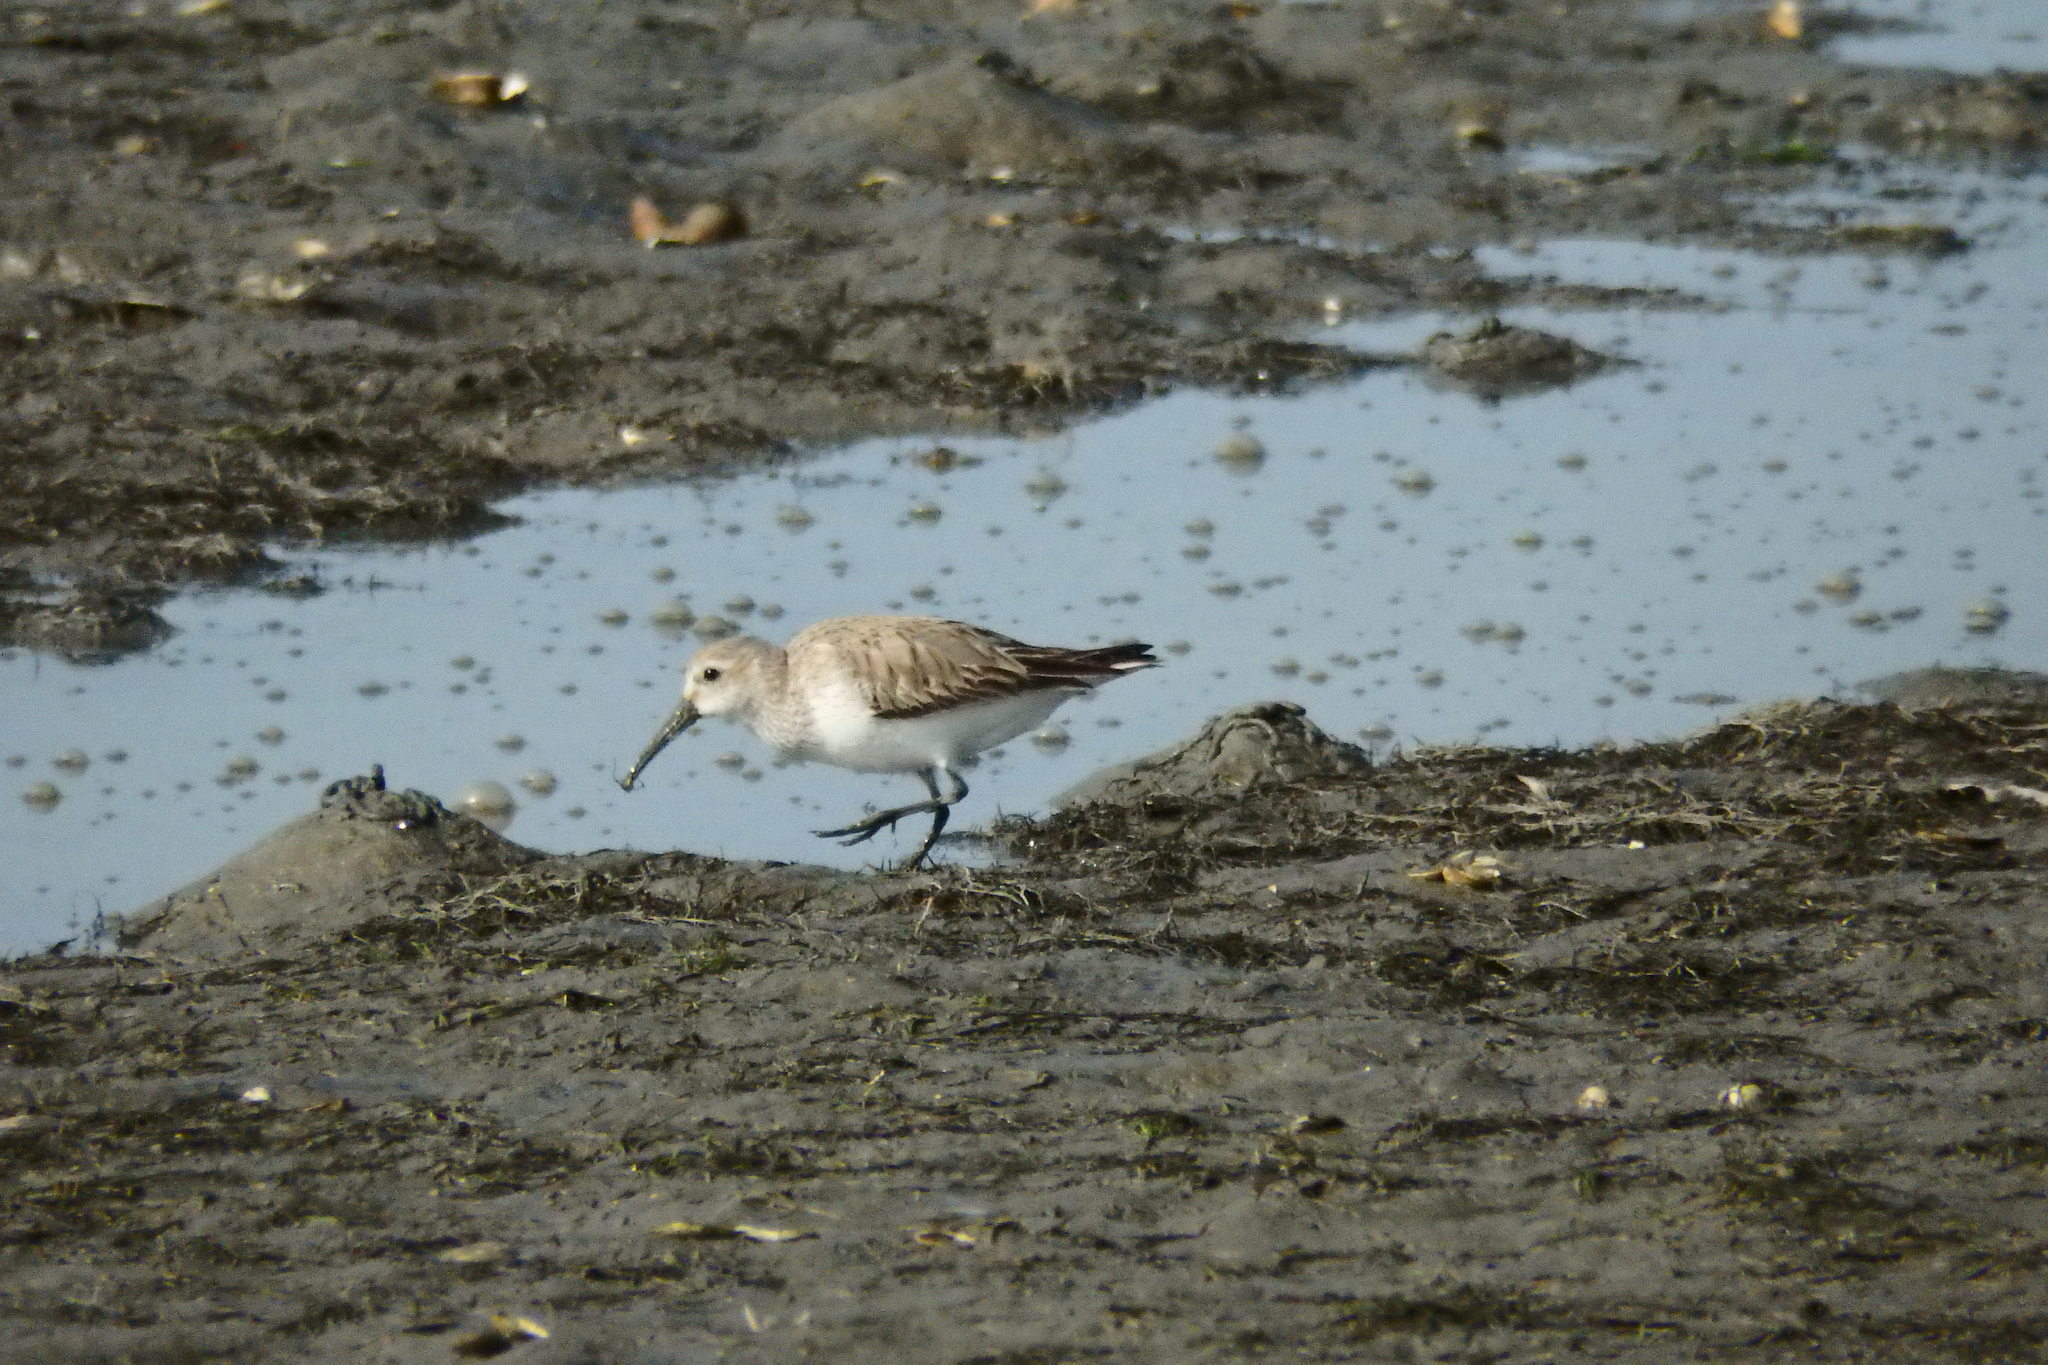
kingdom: Animalia
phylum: Chordata
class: Aves
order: Charadriiformes
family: Scolopacidae
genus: Calidris
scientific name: Calidris alpina
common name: Dunlin
